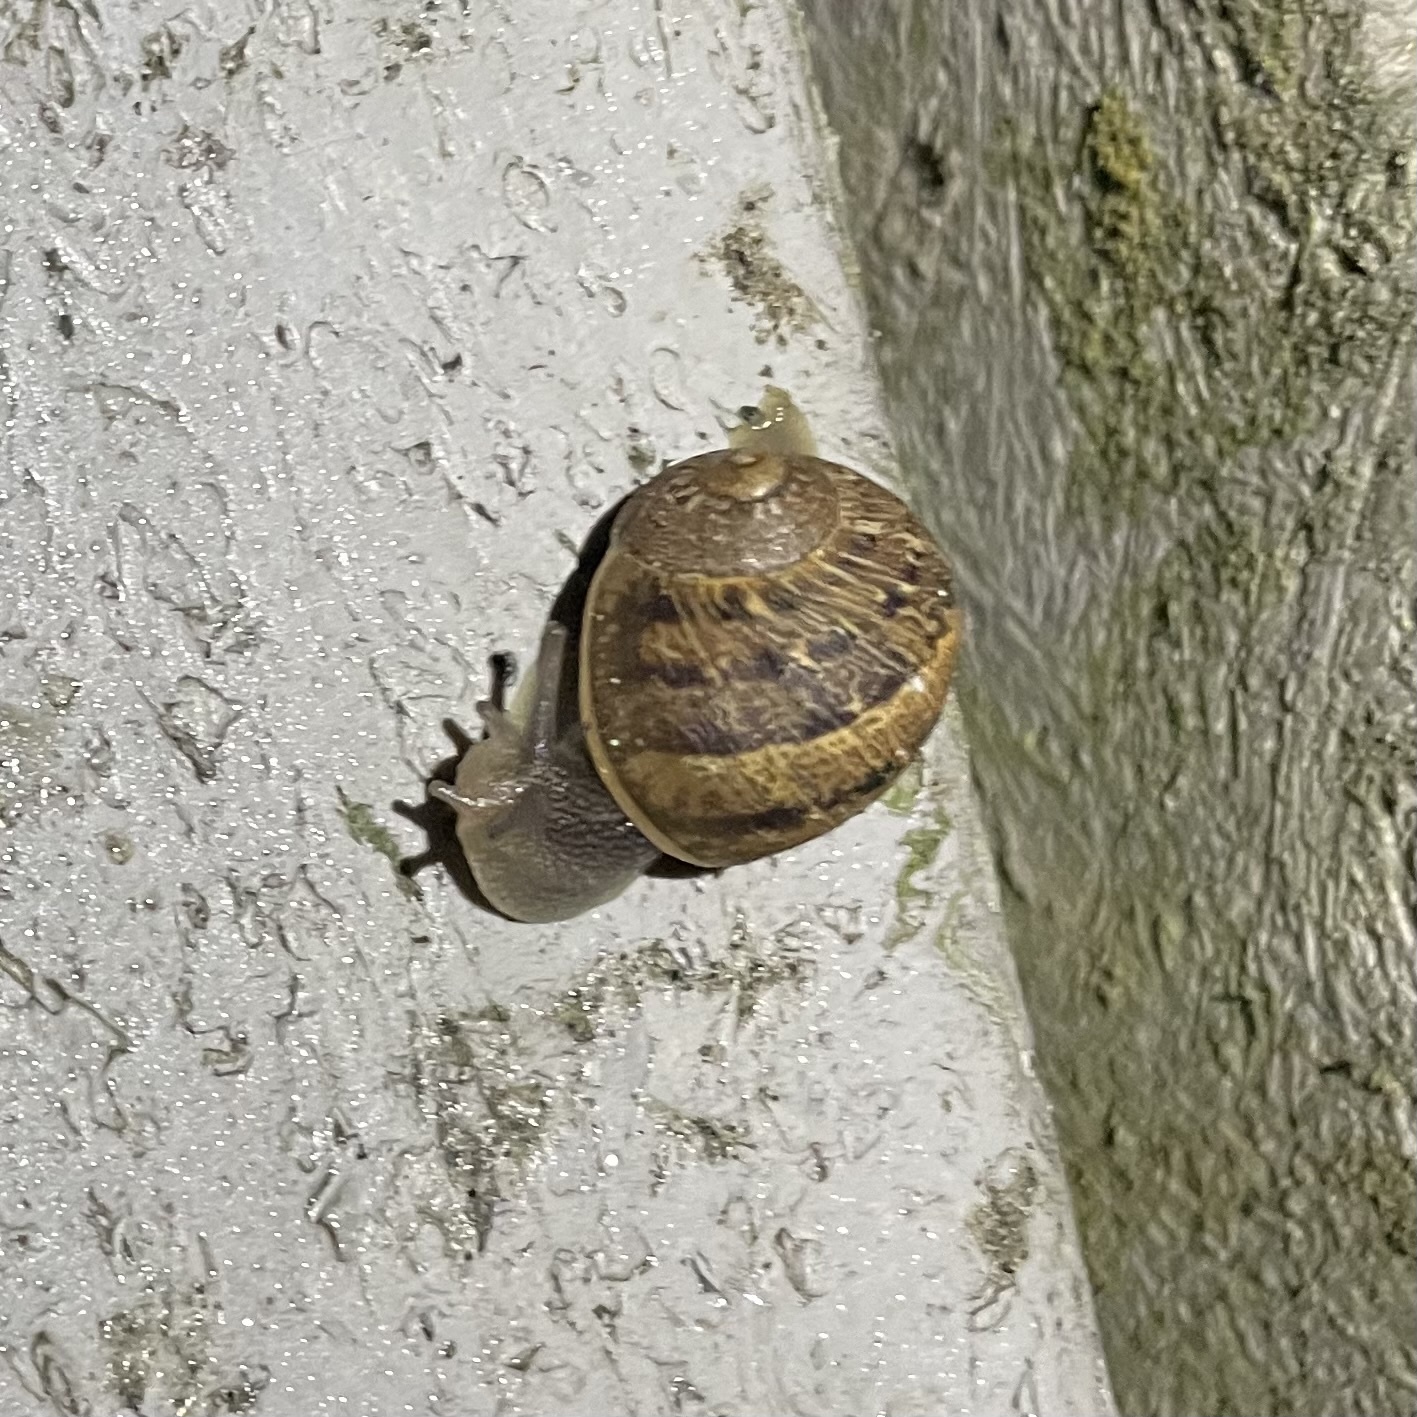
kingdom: Animalia
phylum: Mollusca
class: Gastropoda
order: Stylommatophora
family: Helicidae
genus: Cornu
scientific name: Cornu aspersum
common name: Brown garden snail
